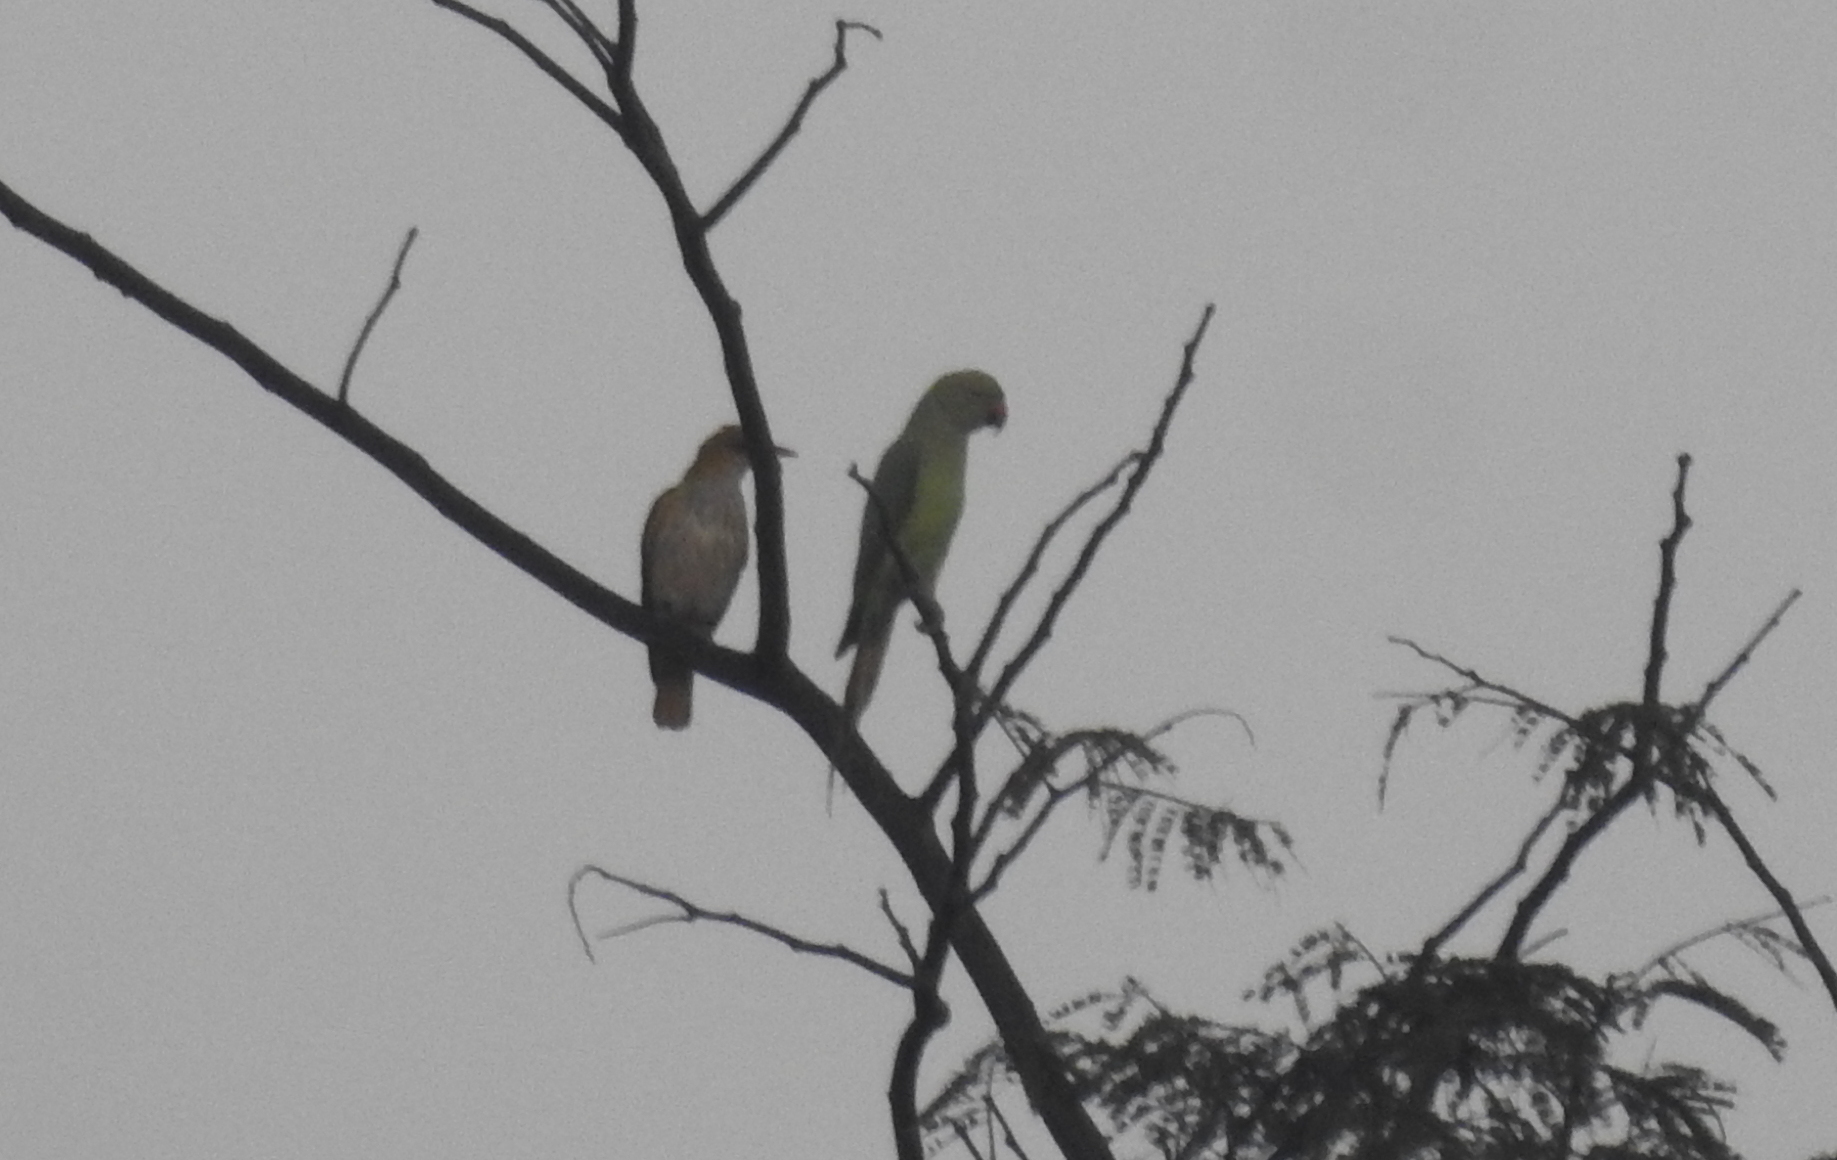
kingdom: Animalia
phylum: Chordata
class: Aves
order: Psittaciformes
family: Psittacidae
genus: Psittacula
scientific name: Psittacula krameri
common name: Rose-ringed parakeet
